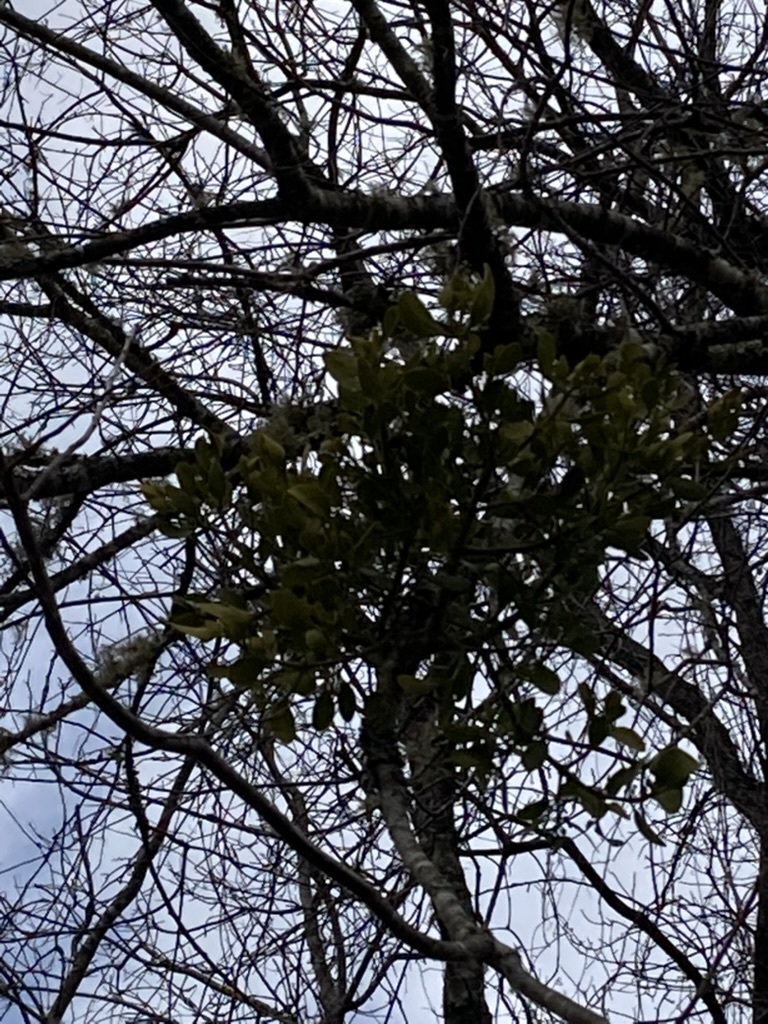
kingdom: Plantae
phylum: Tracheophyta
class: Magnoliopsida
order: Santalales
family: Viscaceae
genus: Phoradendron
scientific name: Phoradendron leucarpum
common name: Pacific mistletoe
